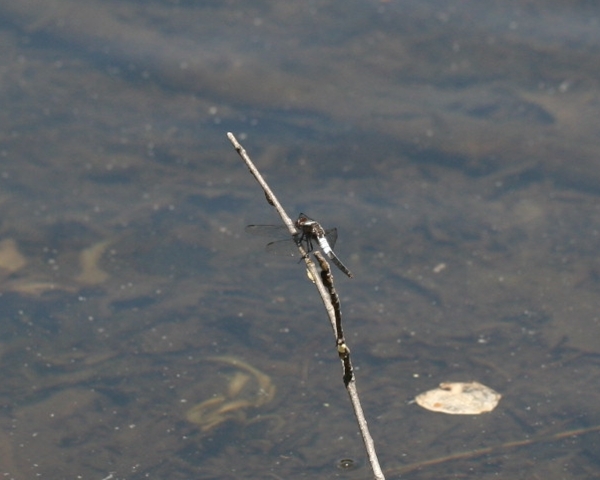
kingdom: Animalia
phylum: Arthropoda
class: Insecta
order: Odonata
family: Libellulidae
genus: Ladona
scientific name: Ladona julia
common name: Chalk-fronted corporal
